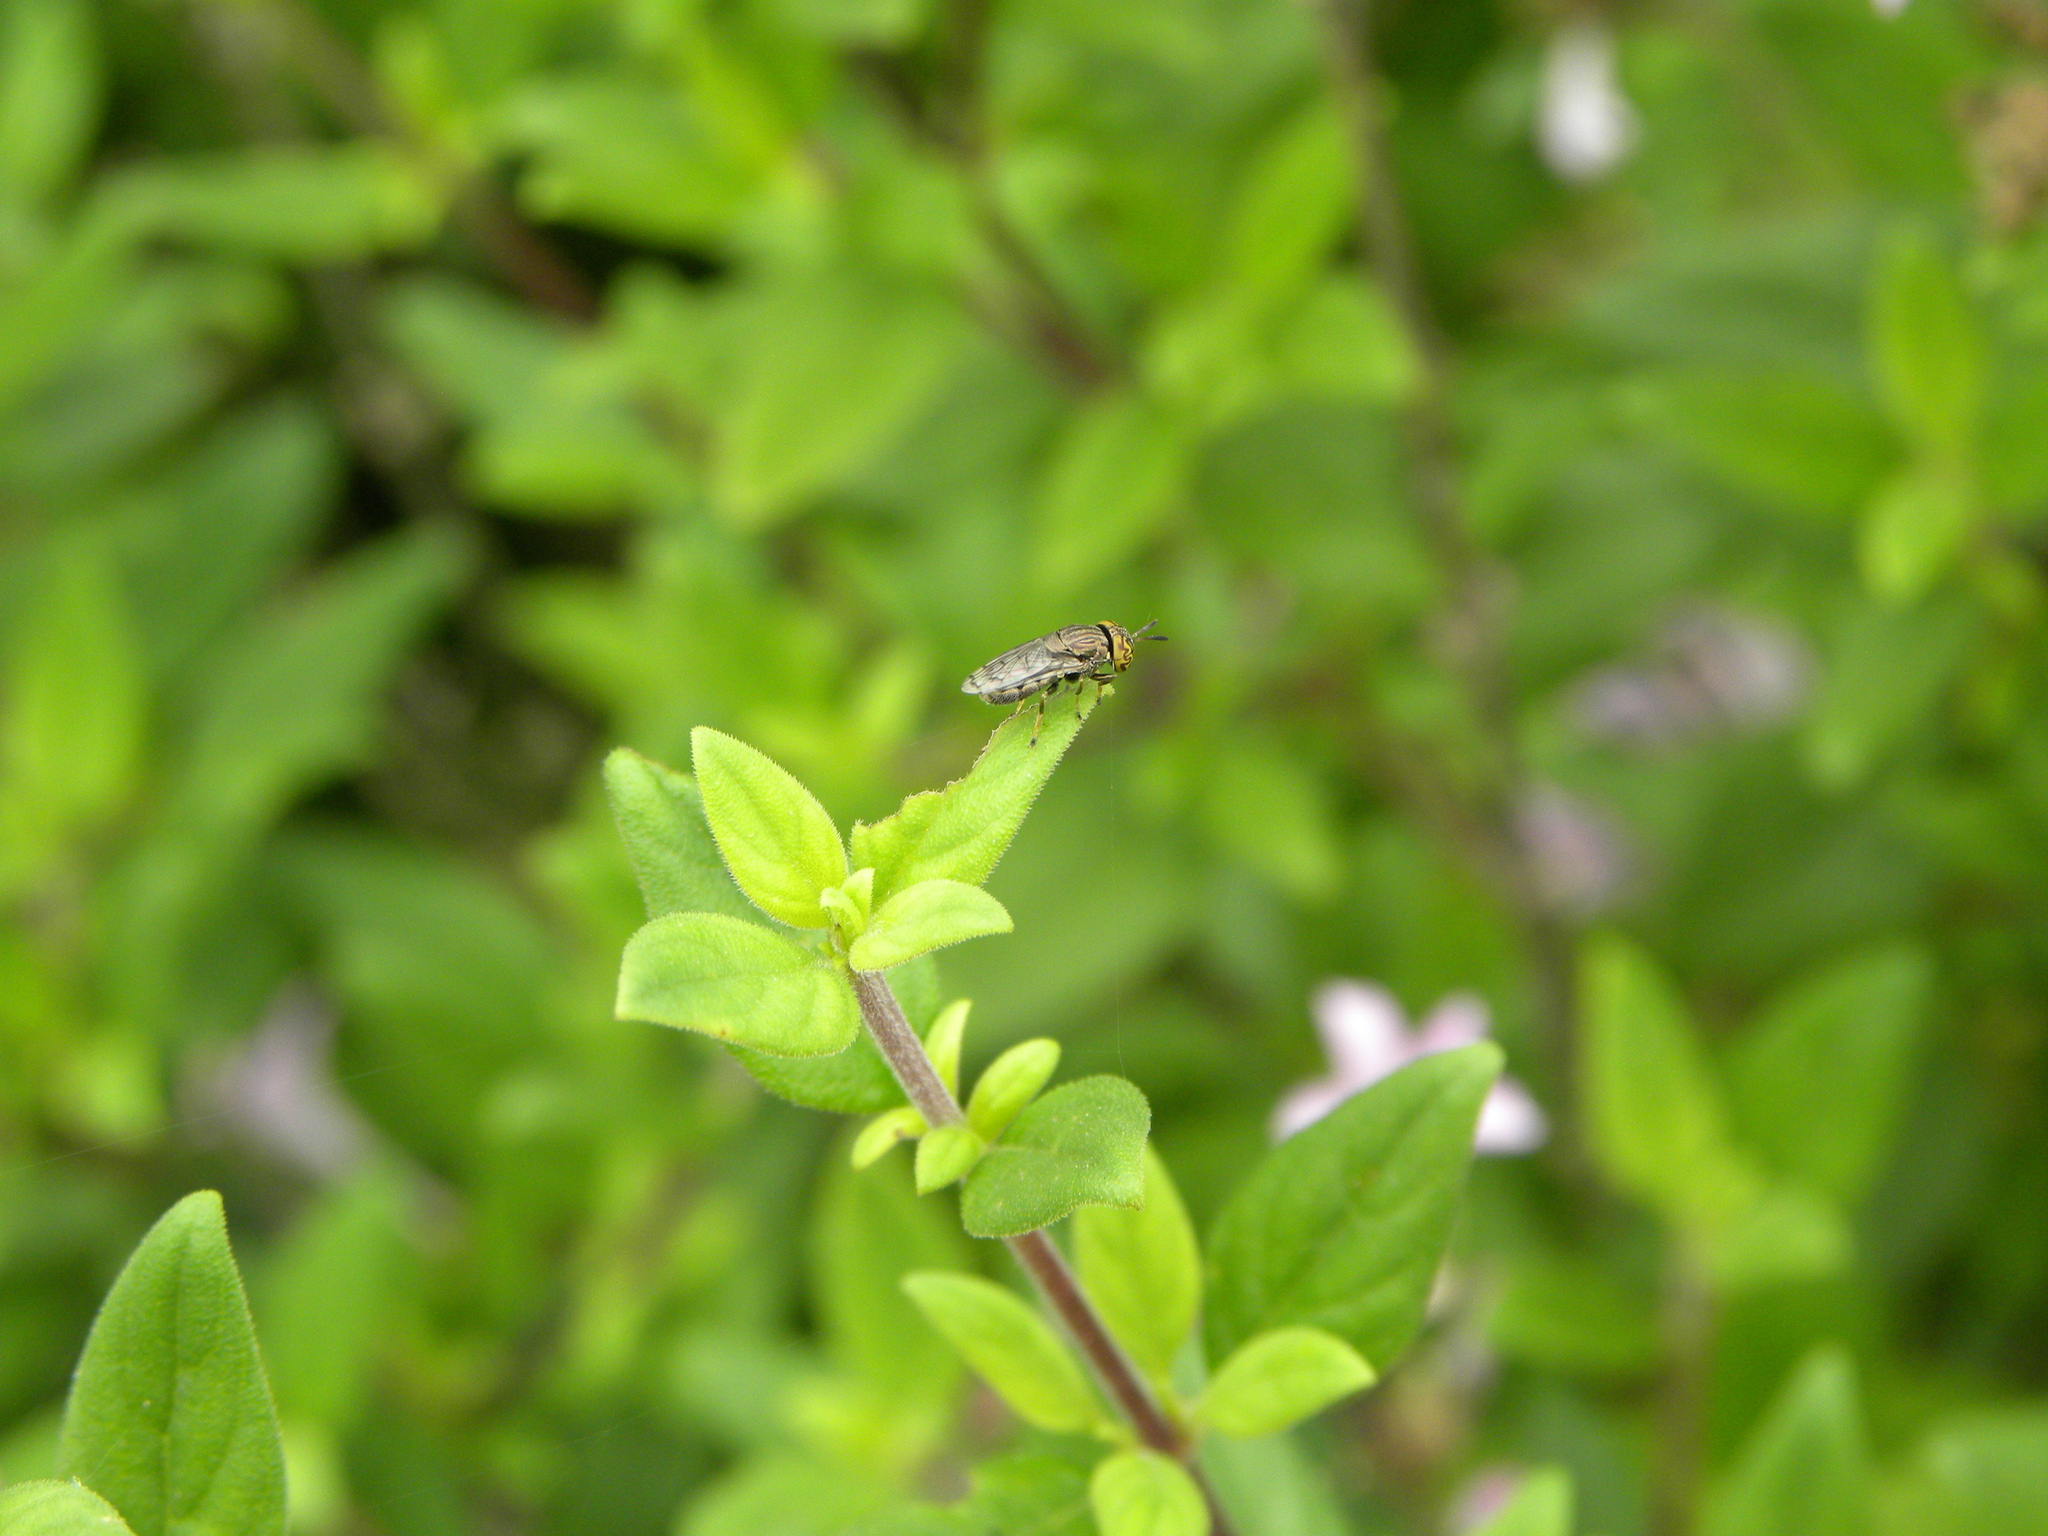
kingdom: Animalia
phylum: Arthropoda
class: Insecta
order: Diptera
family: Syrphidae
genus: Orthonevra
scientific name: Orthonevra nitida
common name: Wavy mucksucker
